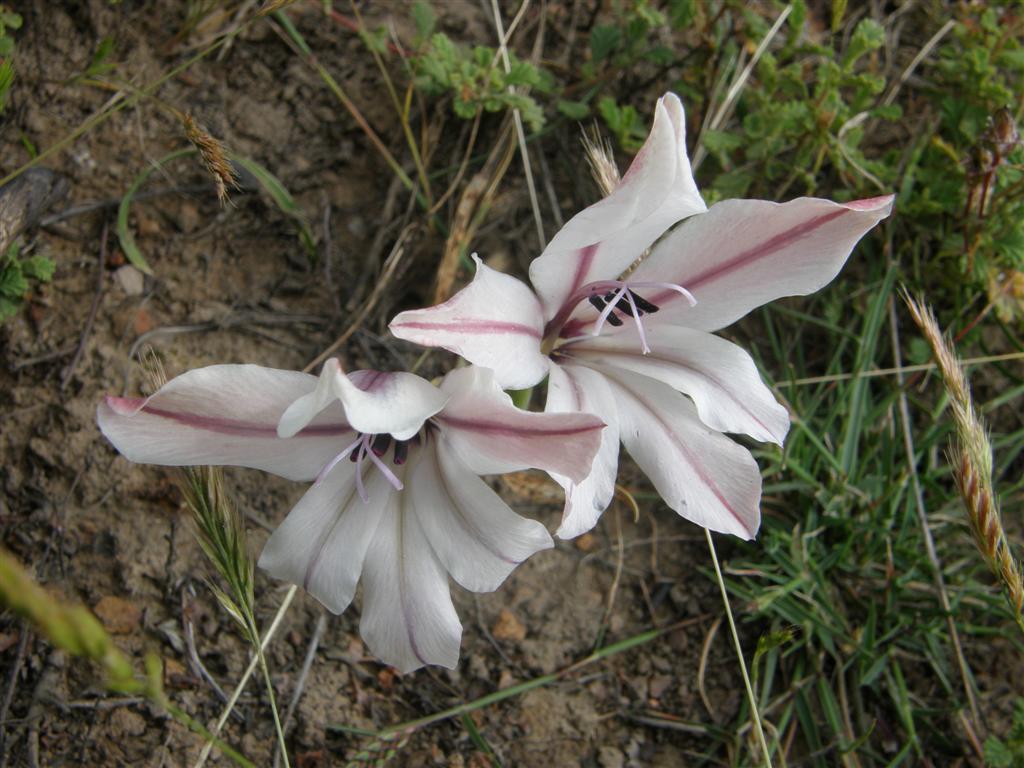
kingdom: Plantae
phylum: Tracheophyta
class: Liliopsida
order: Asparagales
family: Iridaceae
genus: Gladiolus
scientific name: Gladiolus floribundus
